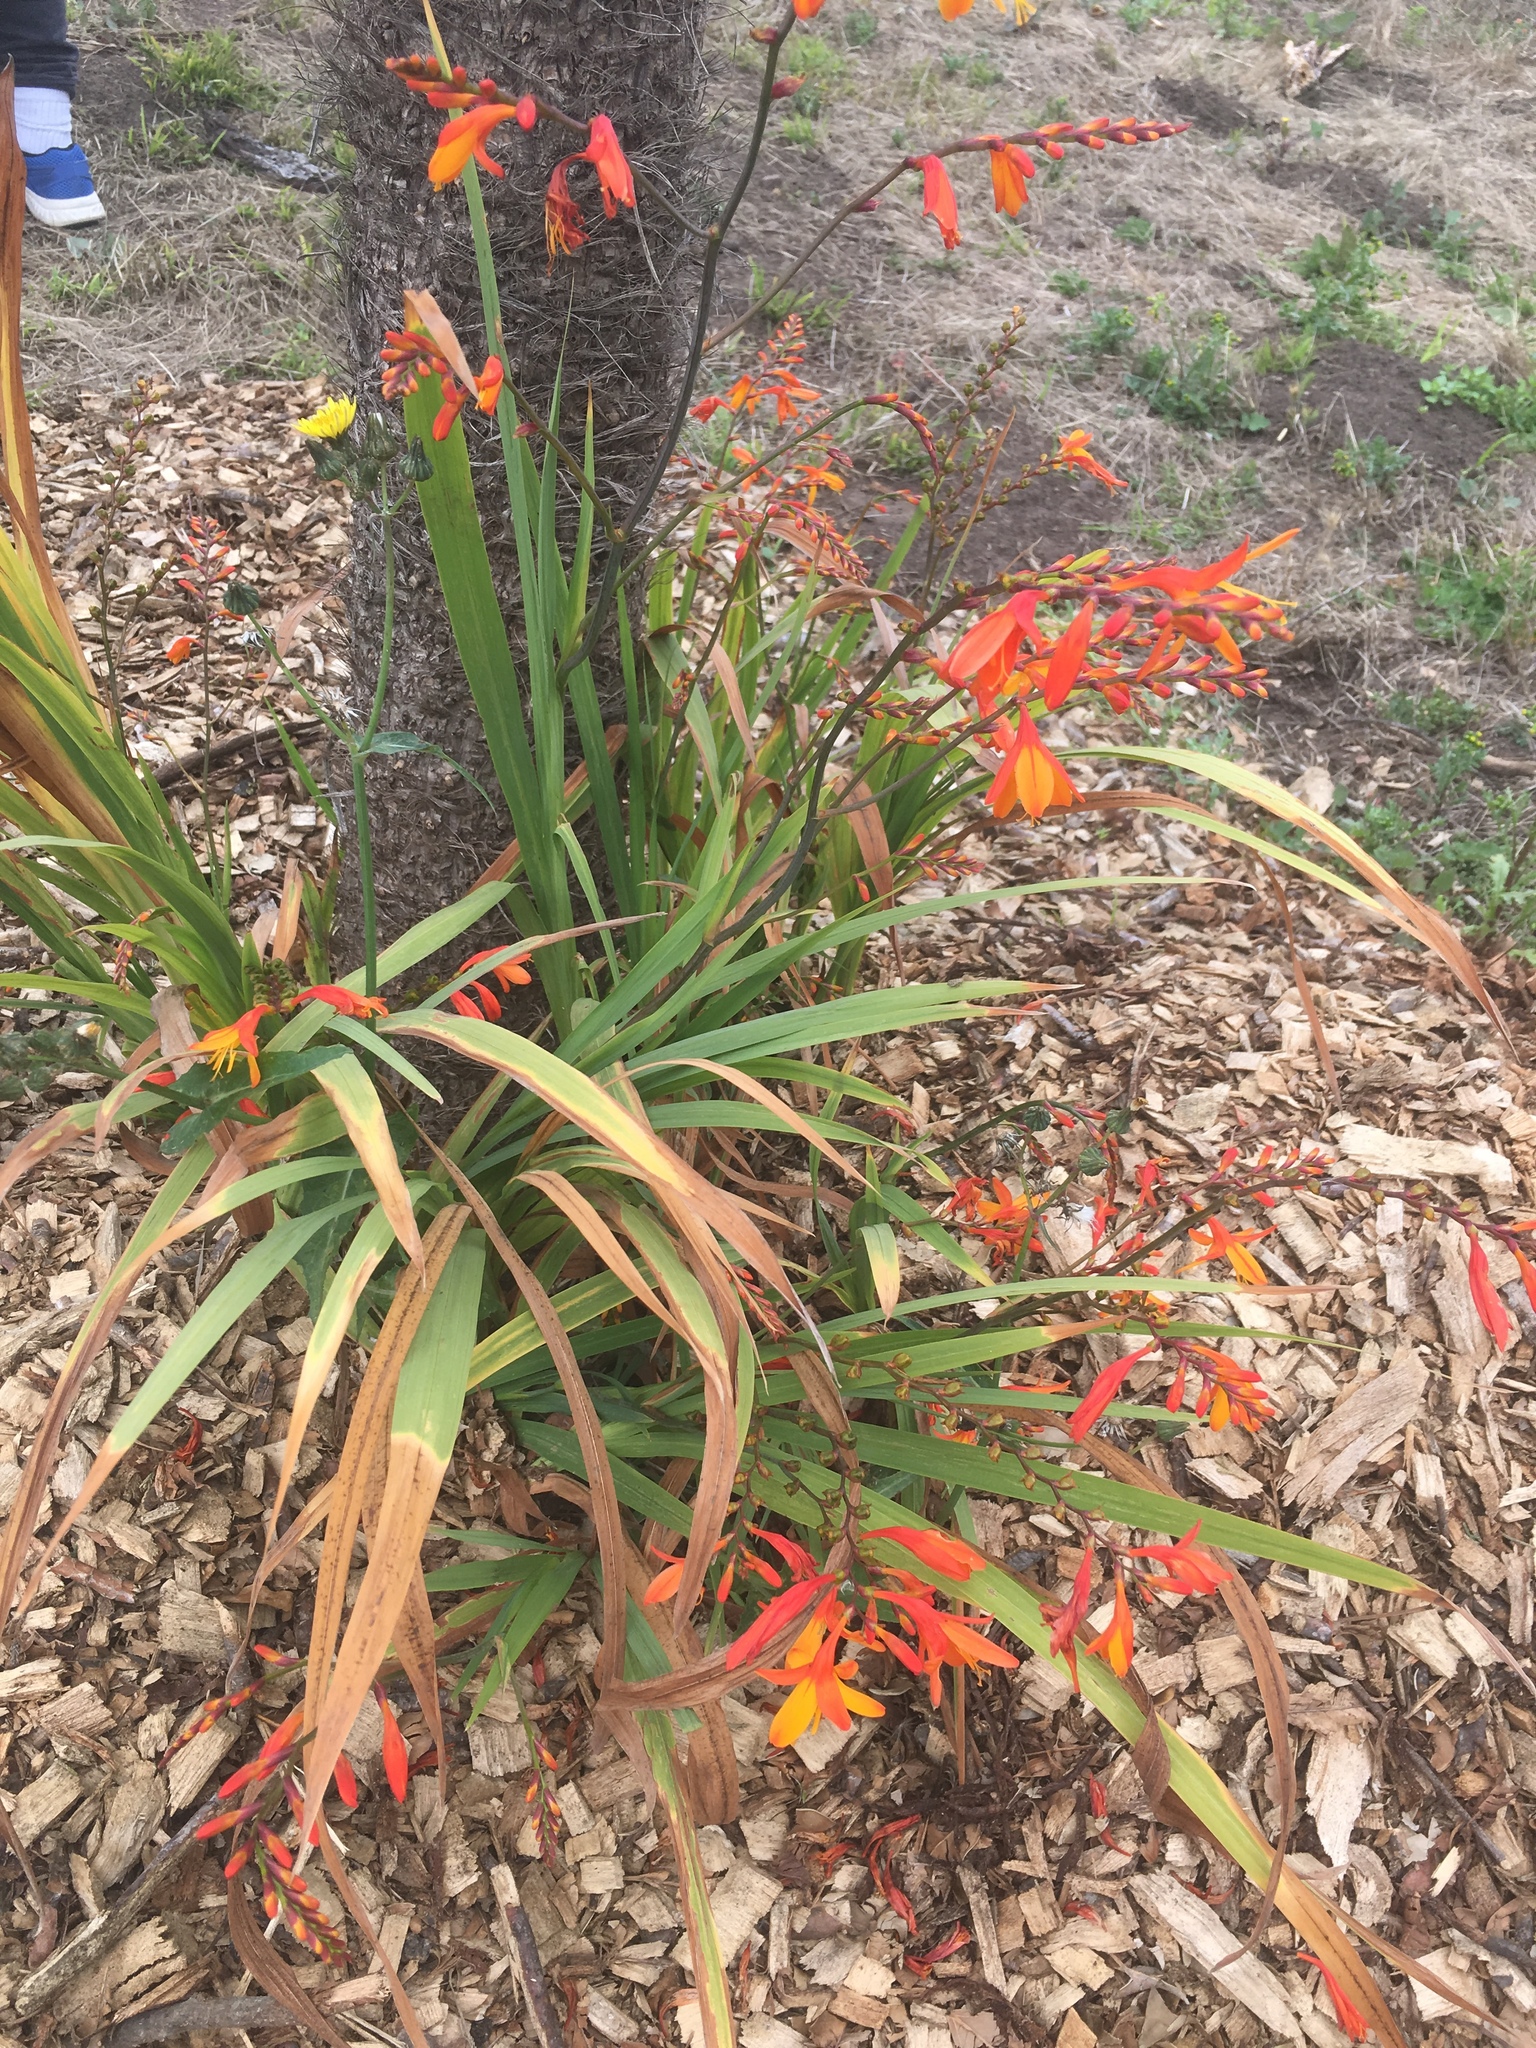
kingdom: Plantae
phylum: Tracheophyta
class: Liliopsida
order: Asparagales
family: Iridaceae
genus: Crocosmia
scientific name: Crocosmia crocosmiiflora
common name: Montbretia
